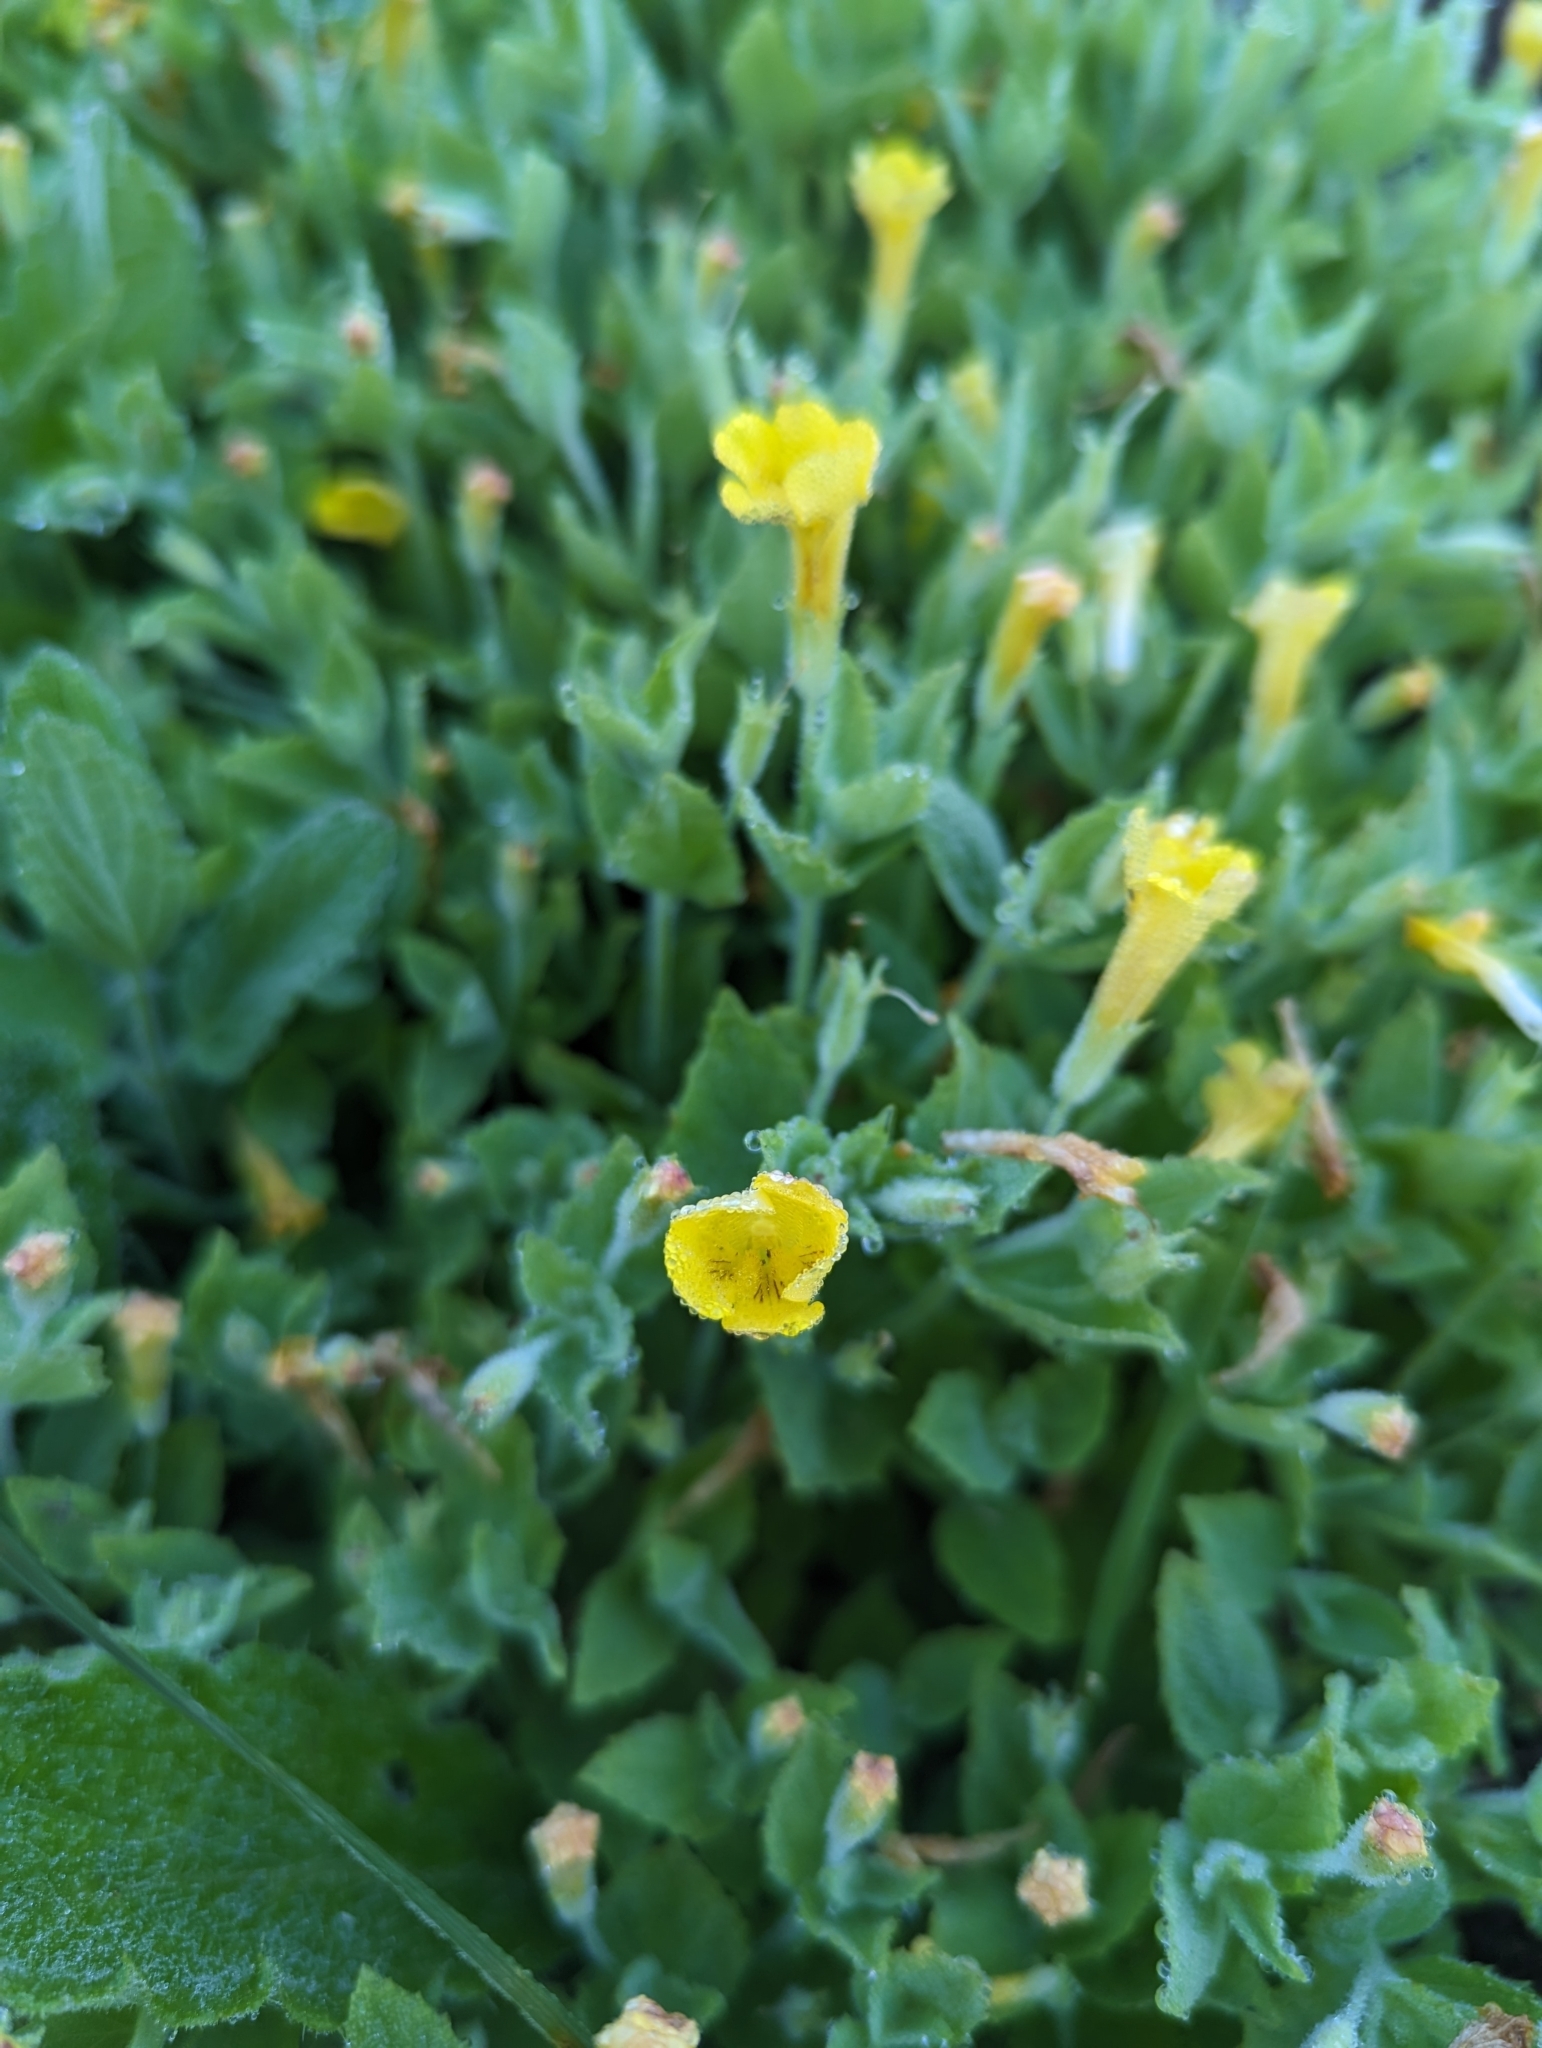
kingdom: Plantae
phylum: Tracheophyta
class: Magnoliopsida
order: Lamiales
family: Phrymaceae
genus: Erythranthe
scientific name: Erythranthe moschata
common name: Muskflower
